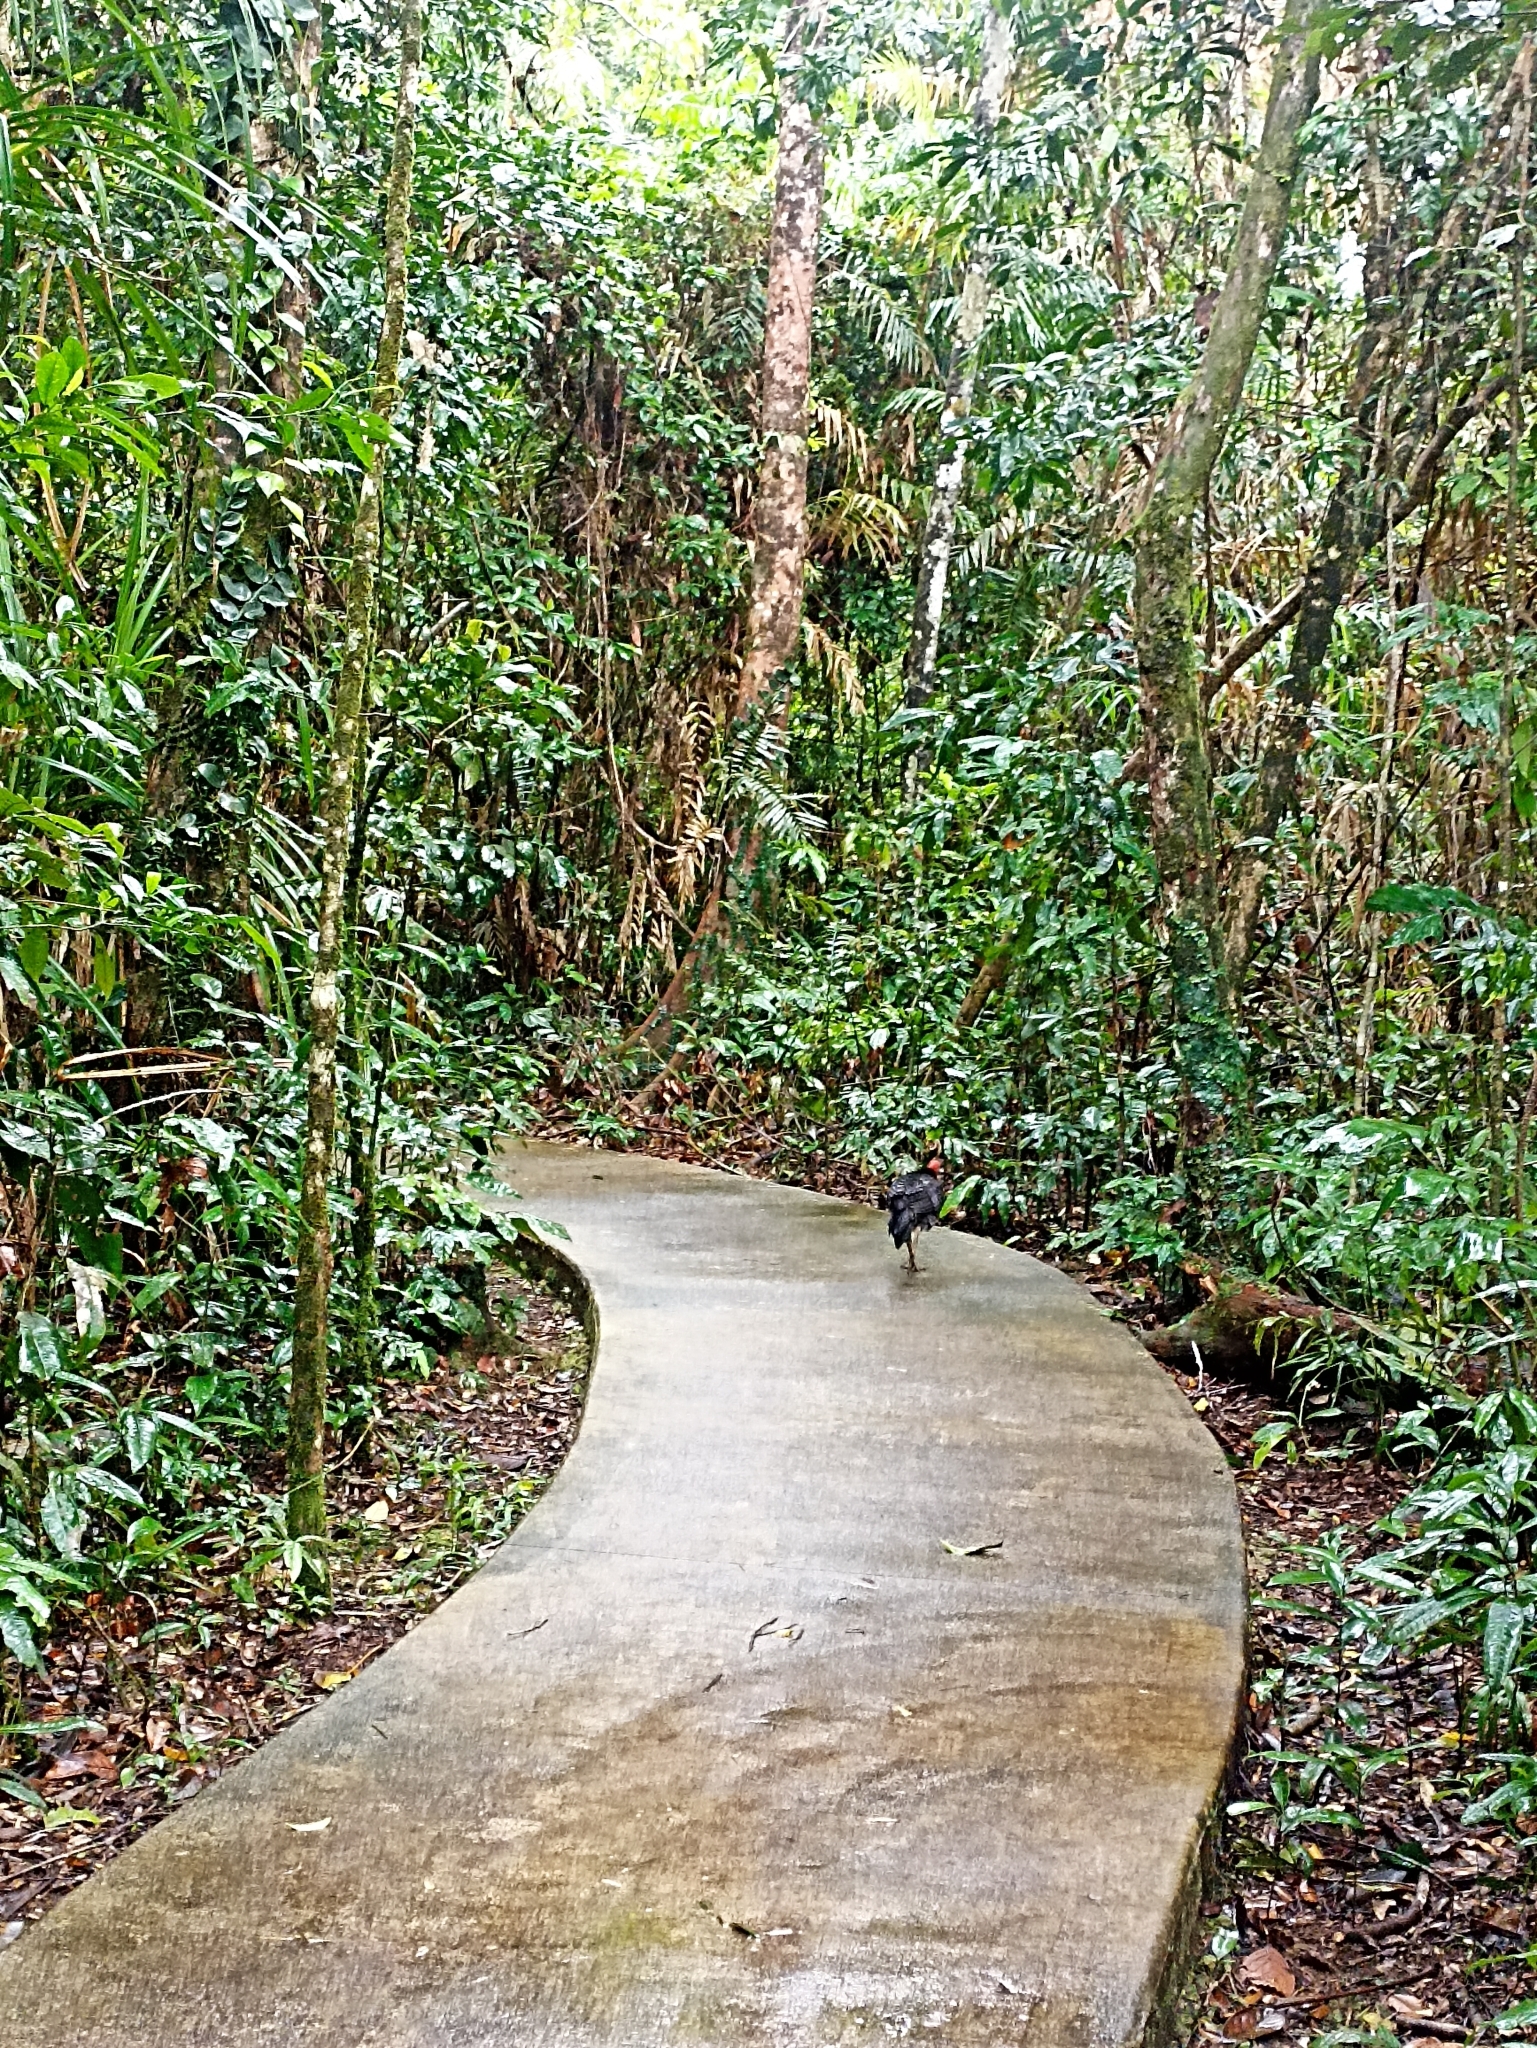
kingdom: Animalia
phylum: Chordata
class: Aves
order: Galliformes
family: Megapodiidae
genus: Alectura
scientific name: Alectura lathami
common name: Australian brushturkey
